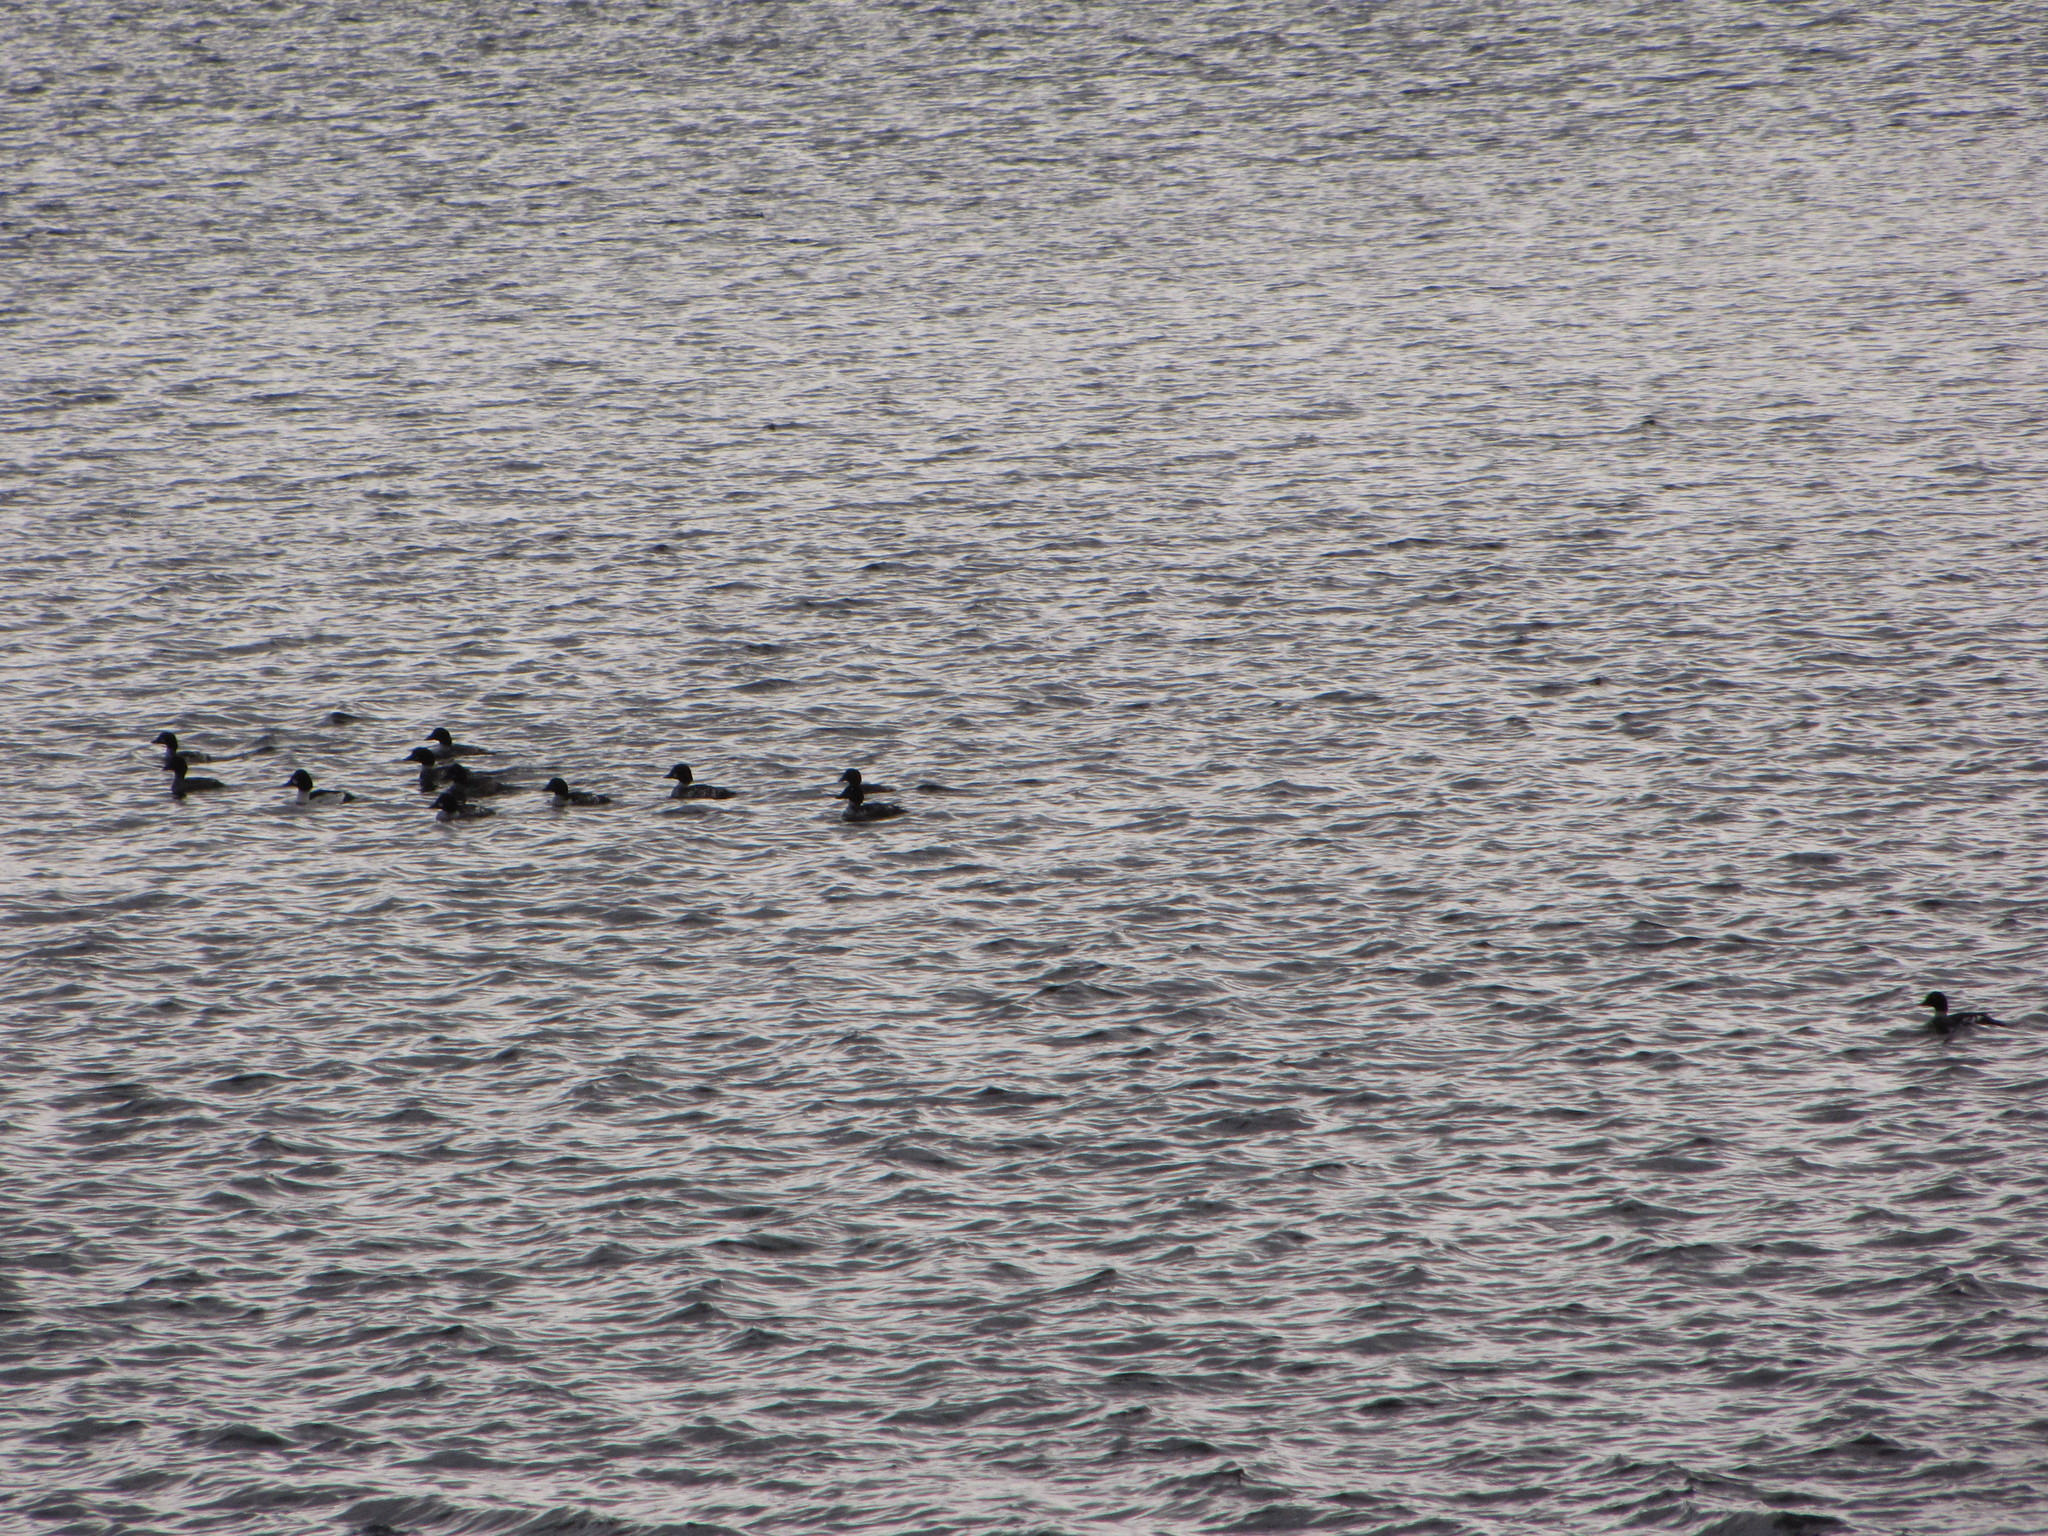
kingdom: Animalia
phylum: Chordata
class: Aves
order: Anseriformes
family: Anatidae
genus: Bucephala
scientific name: Bucephala clangula
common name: Common goldeneye
